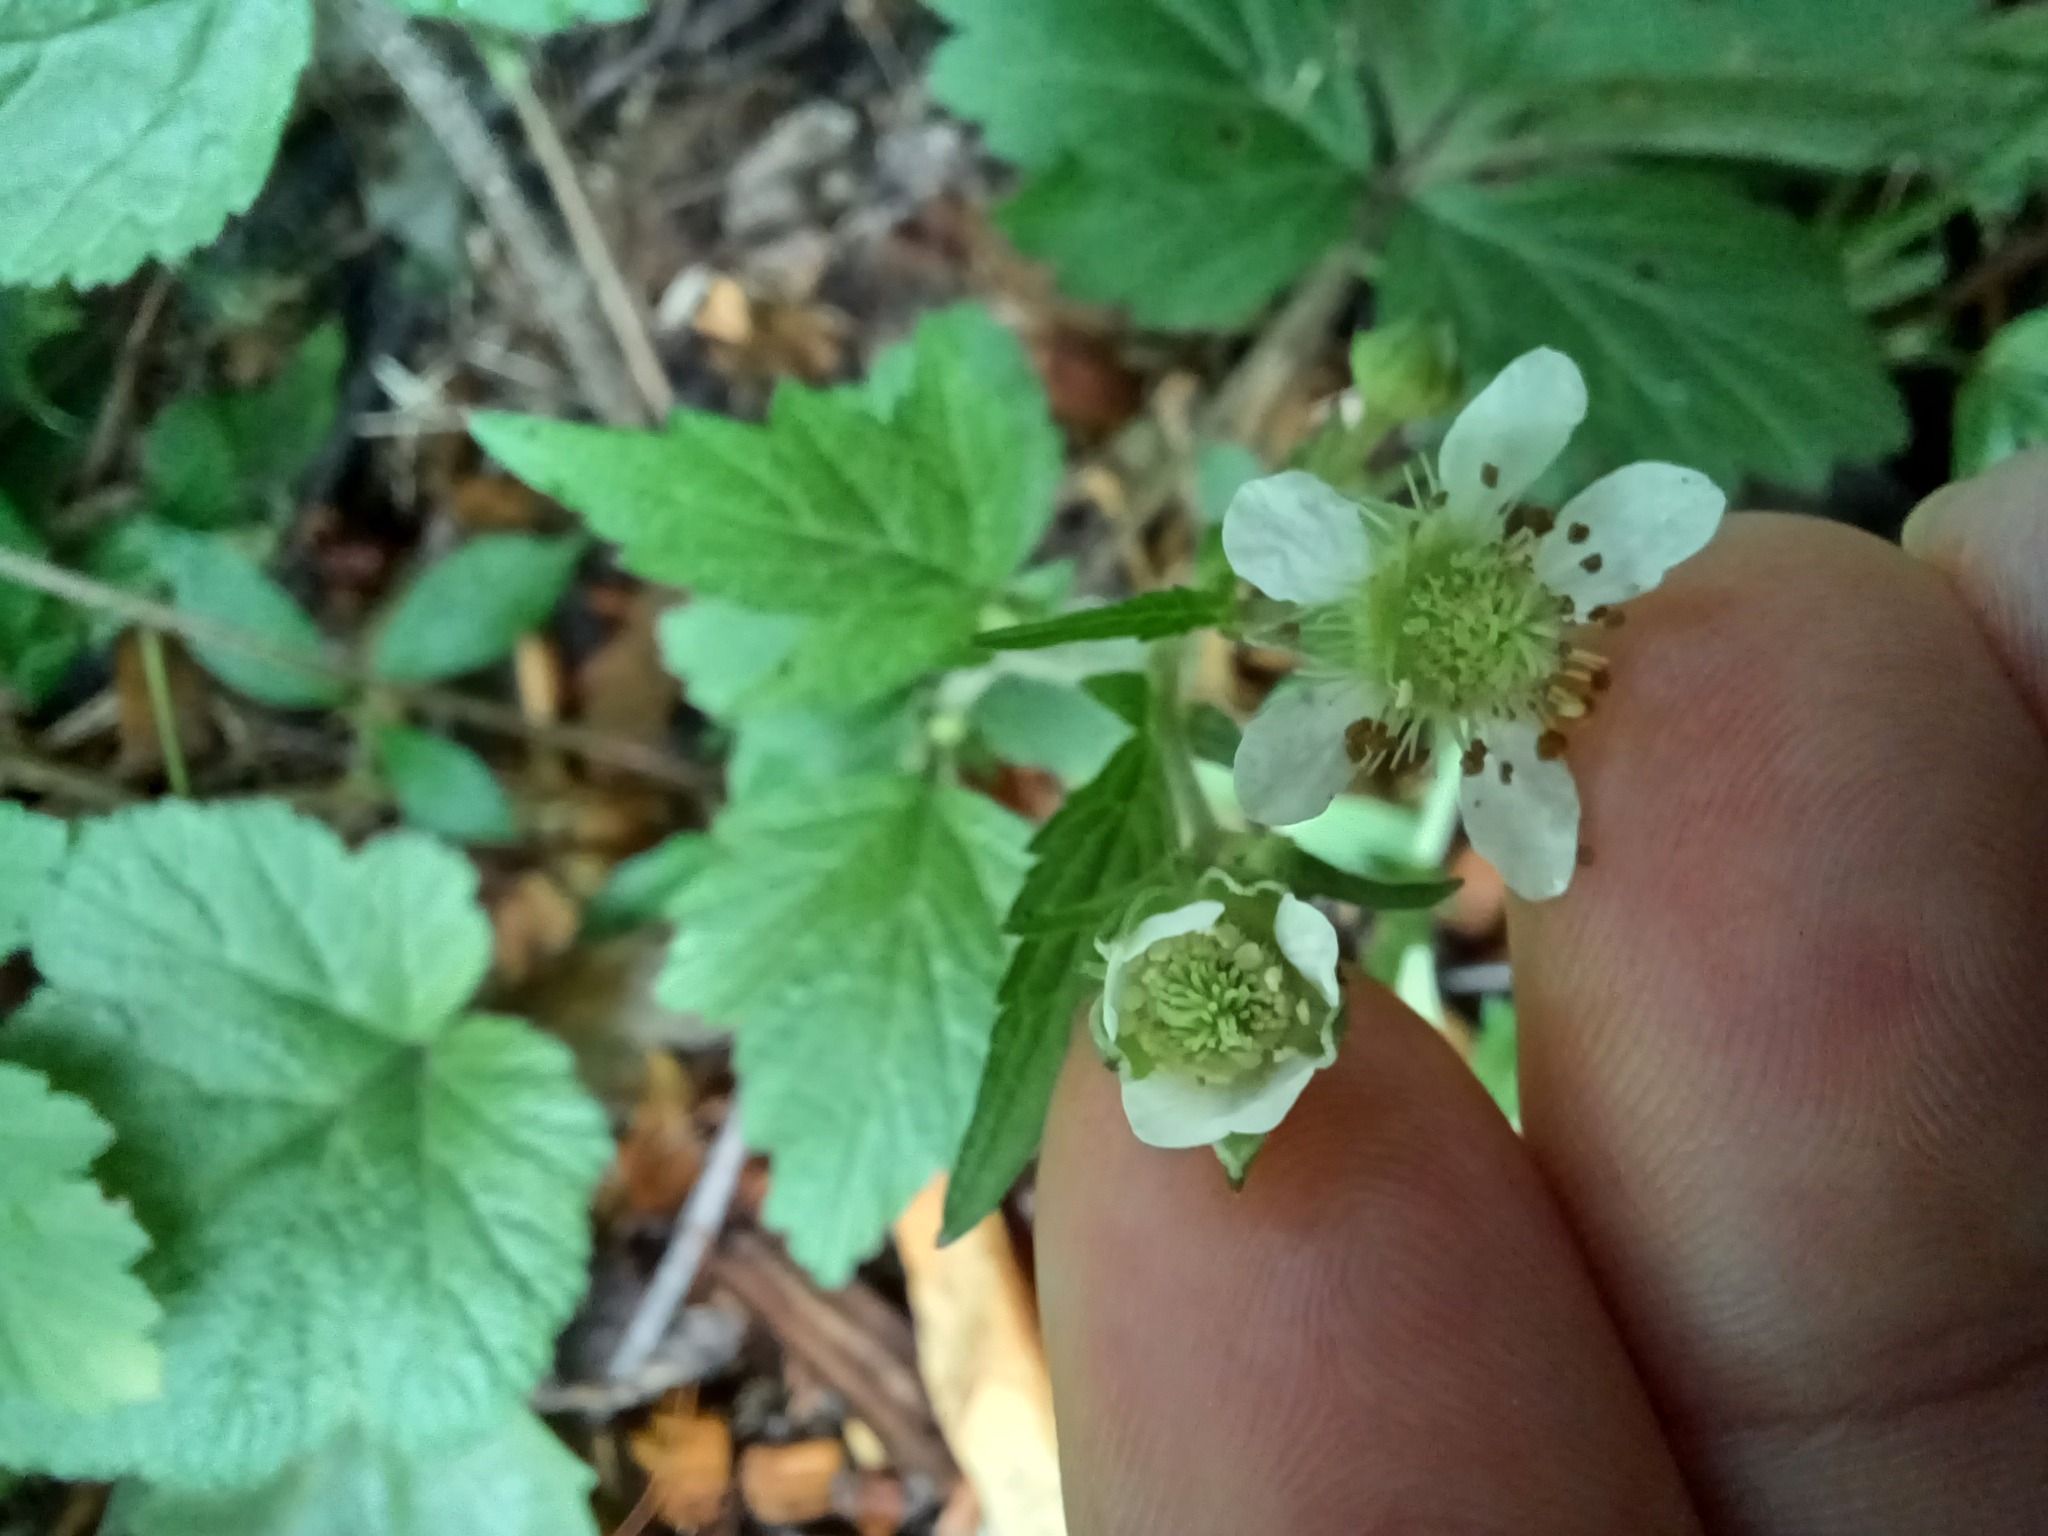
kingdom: Plantae
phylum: Tracheophyta
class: Magnoliopsida
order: Rosales
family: Rosaceae
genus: Geum
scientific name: Geum canadense
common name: White avens
